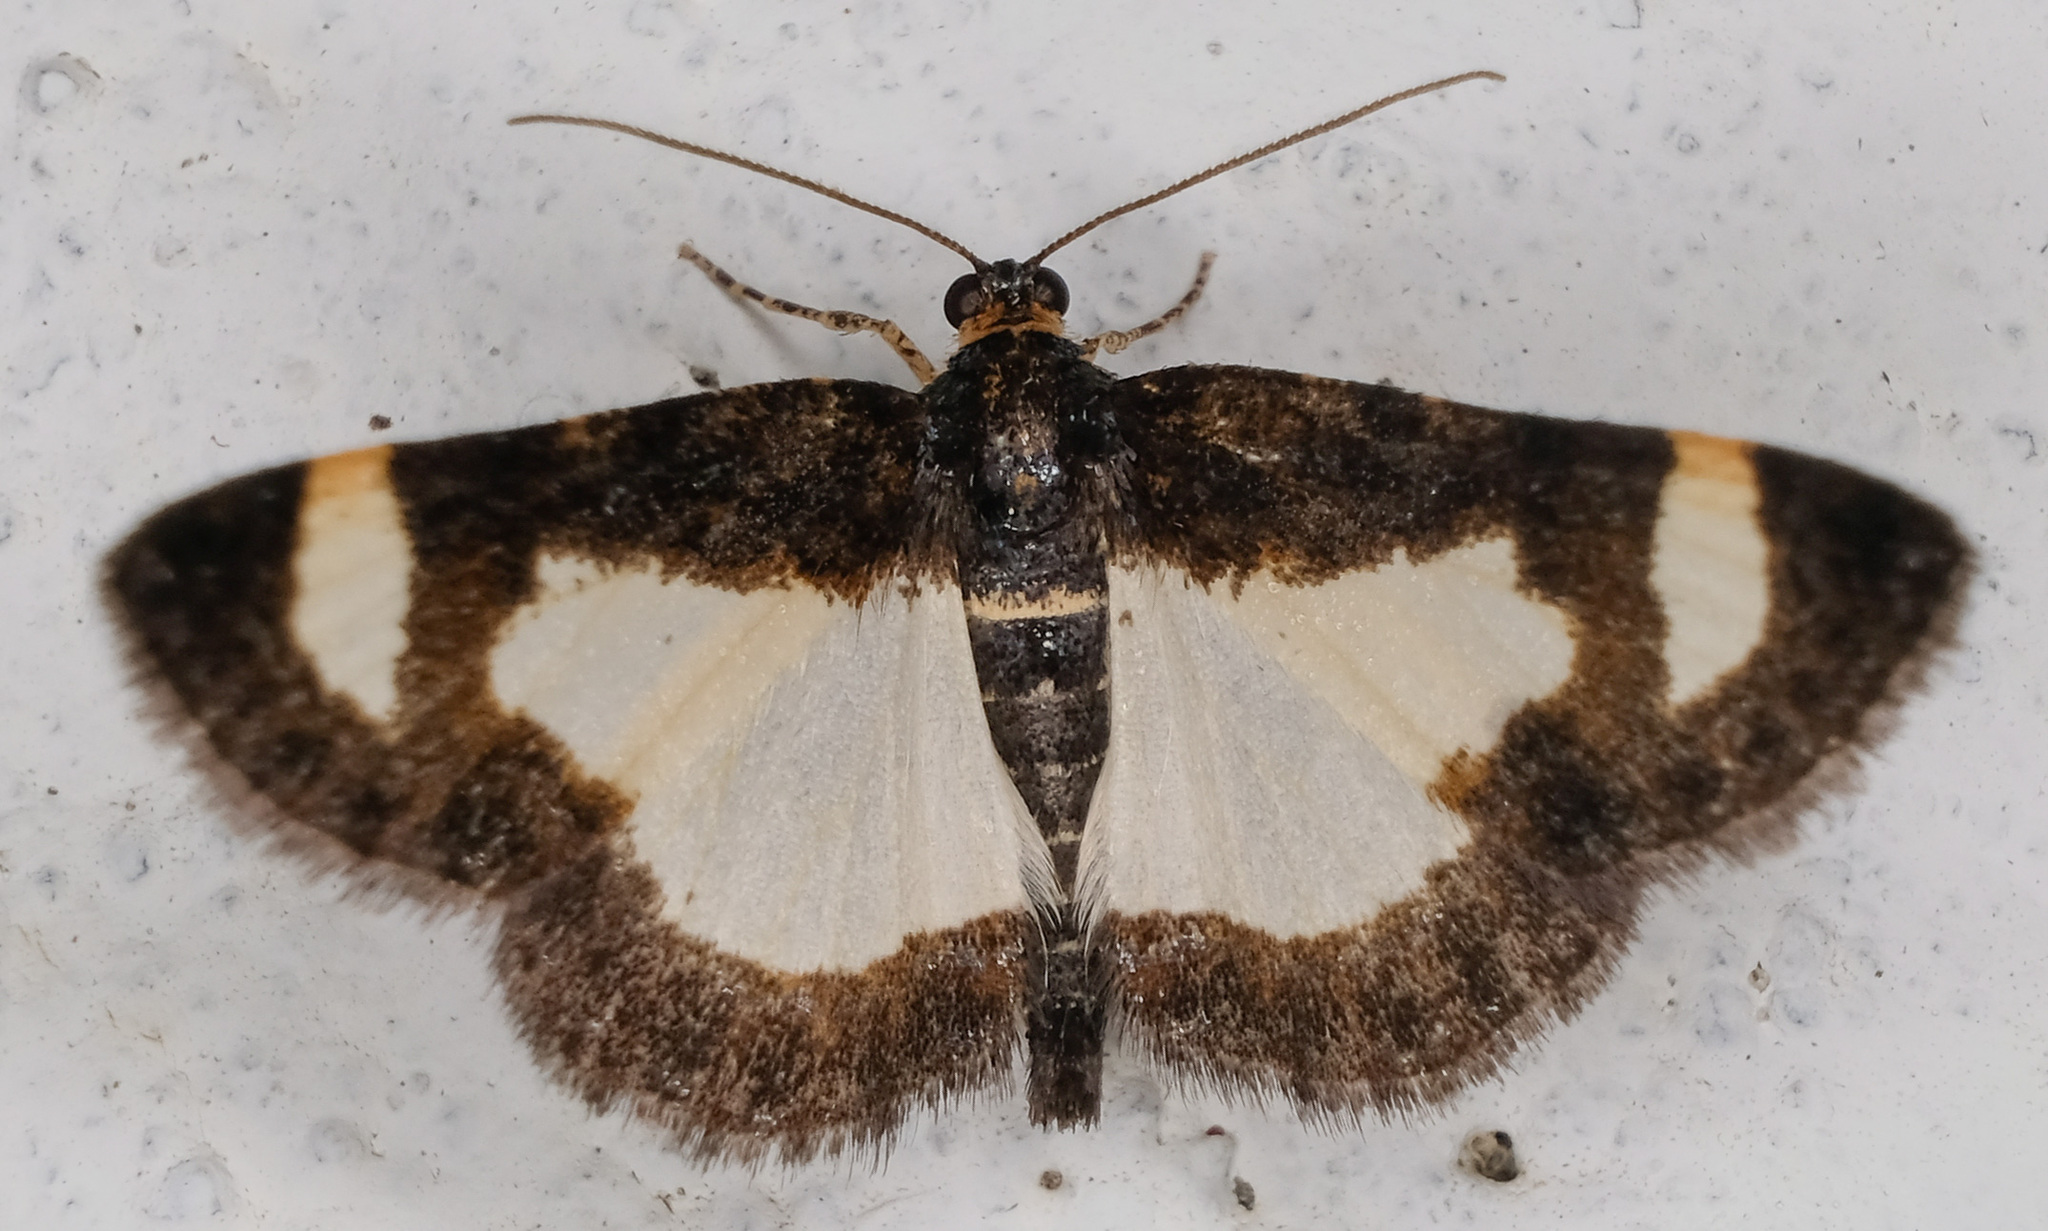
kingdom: Animalia
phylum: Arthropoda
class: Insecta
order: Lepidoptera
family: Geometridae
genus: Heliomata
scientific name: Heliomata cycladata
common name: Common spring moth
